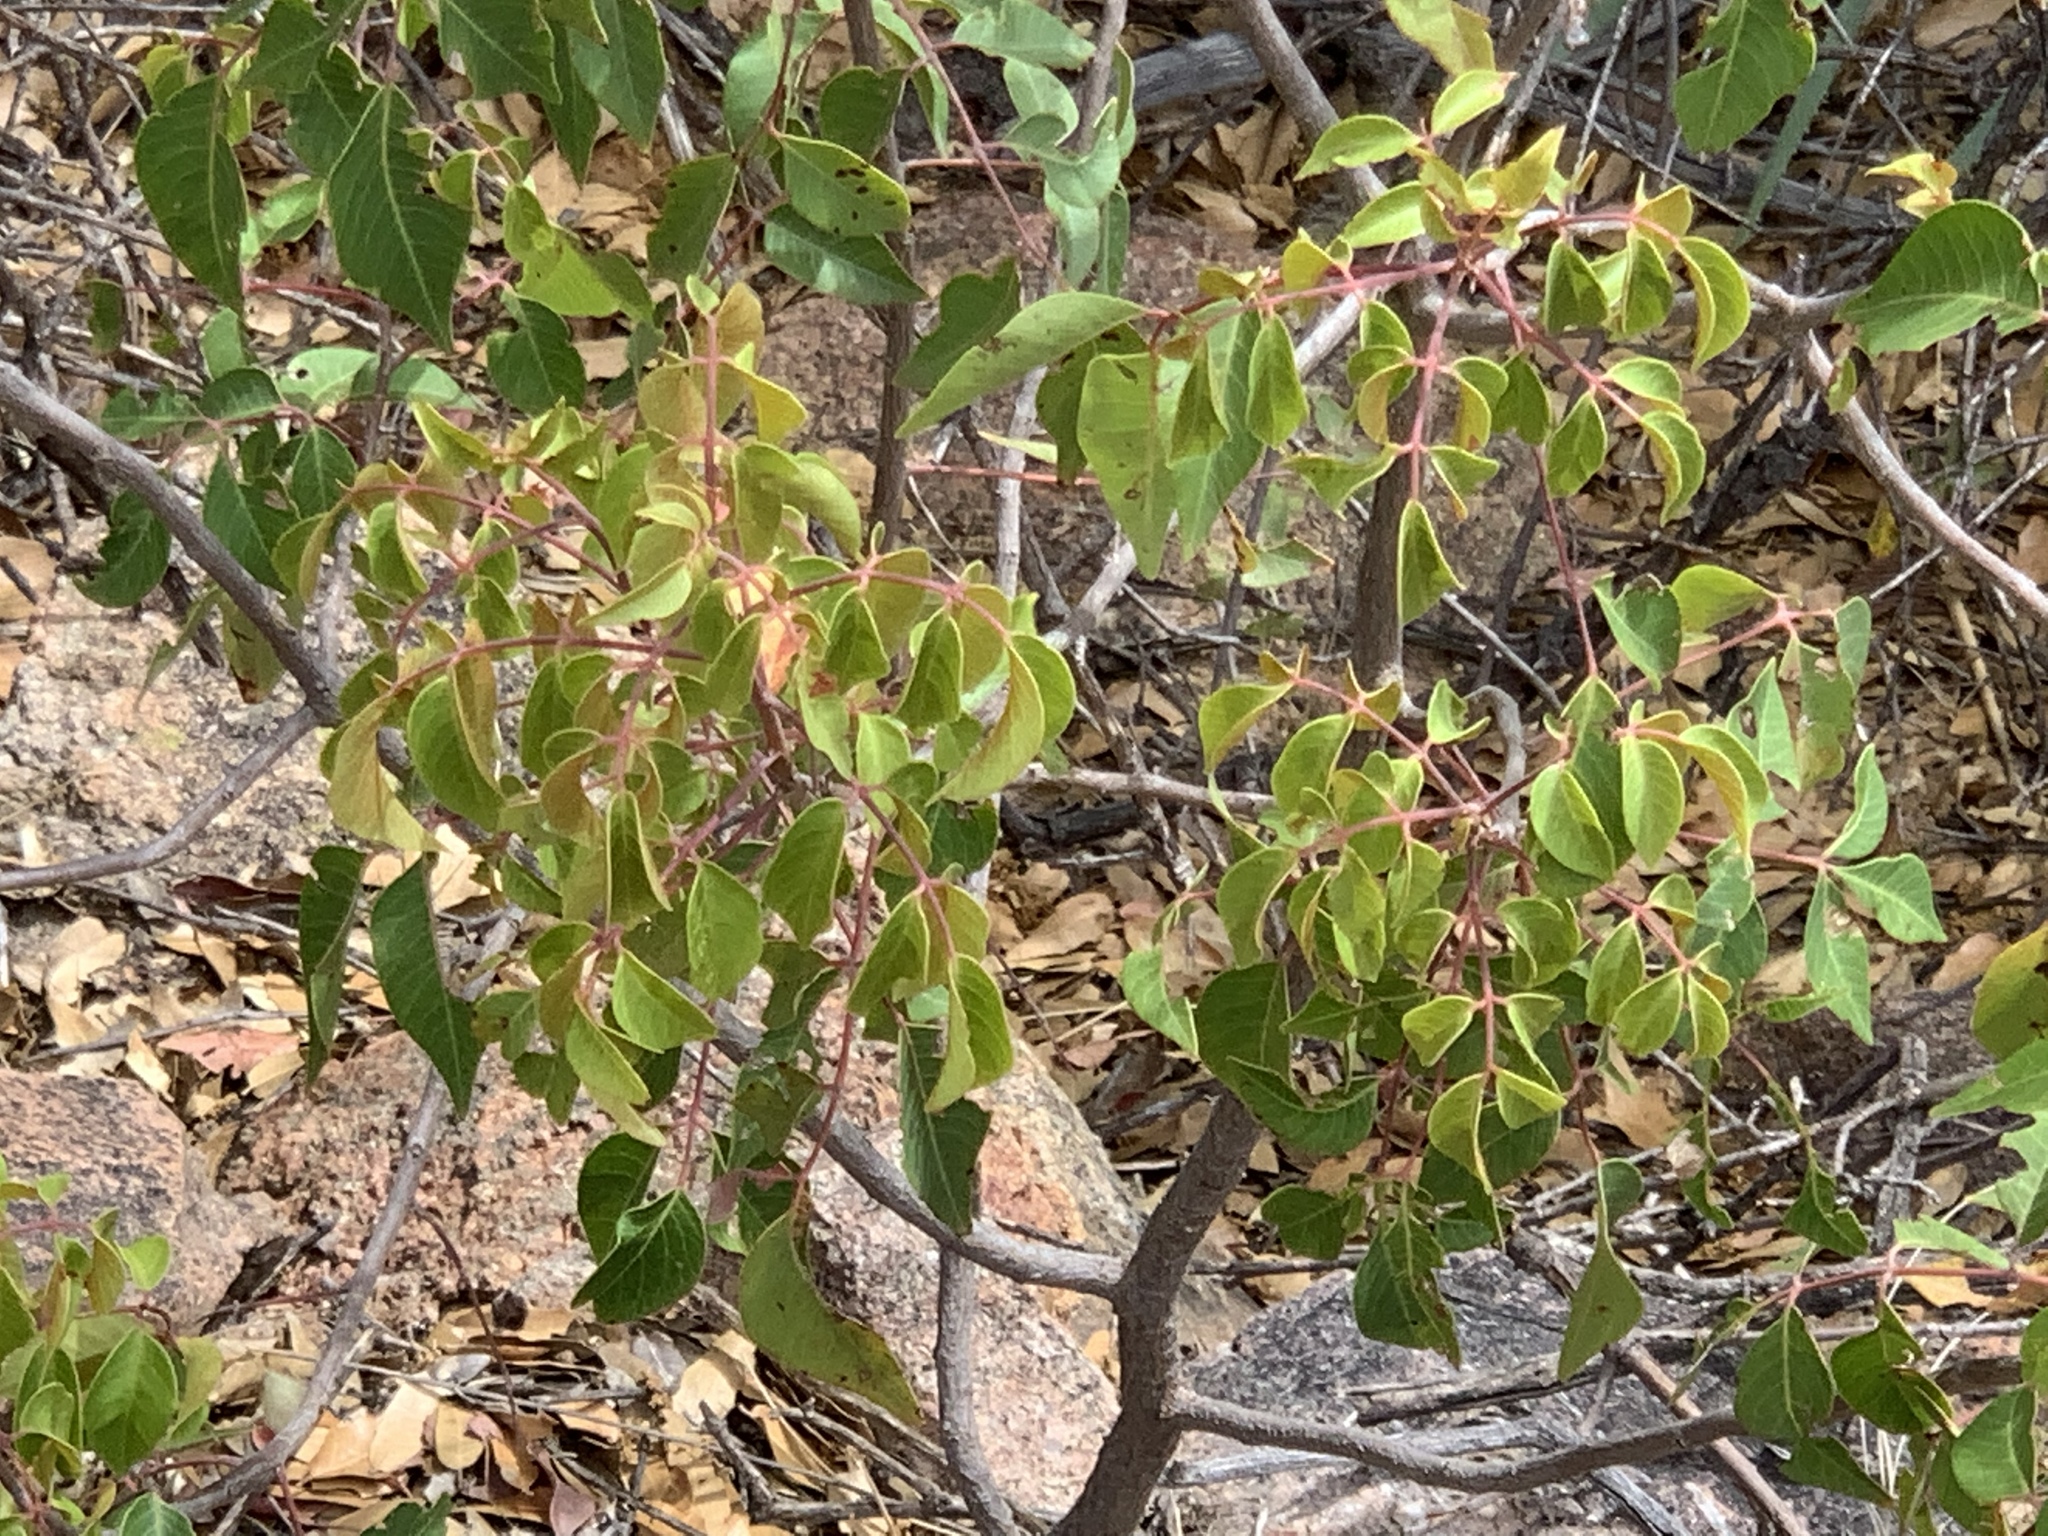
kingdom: Plantae
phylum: Tracheophyta
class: Magnoliopsida
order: Sapindales
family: Anacardiaceae
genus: Rhus
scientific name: Rhus virens
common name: Evergreen sumac
